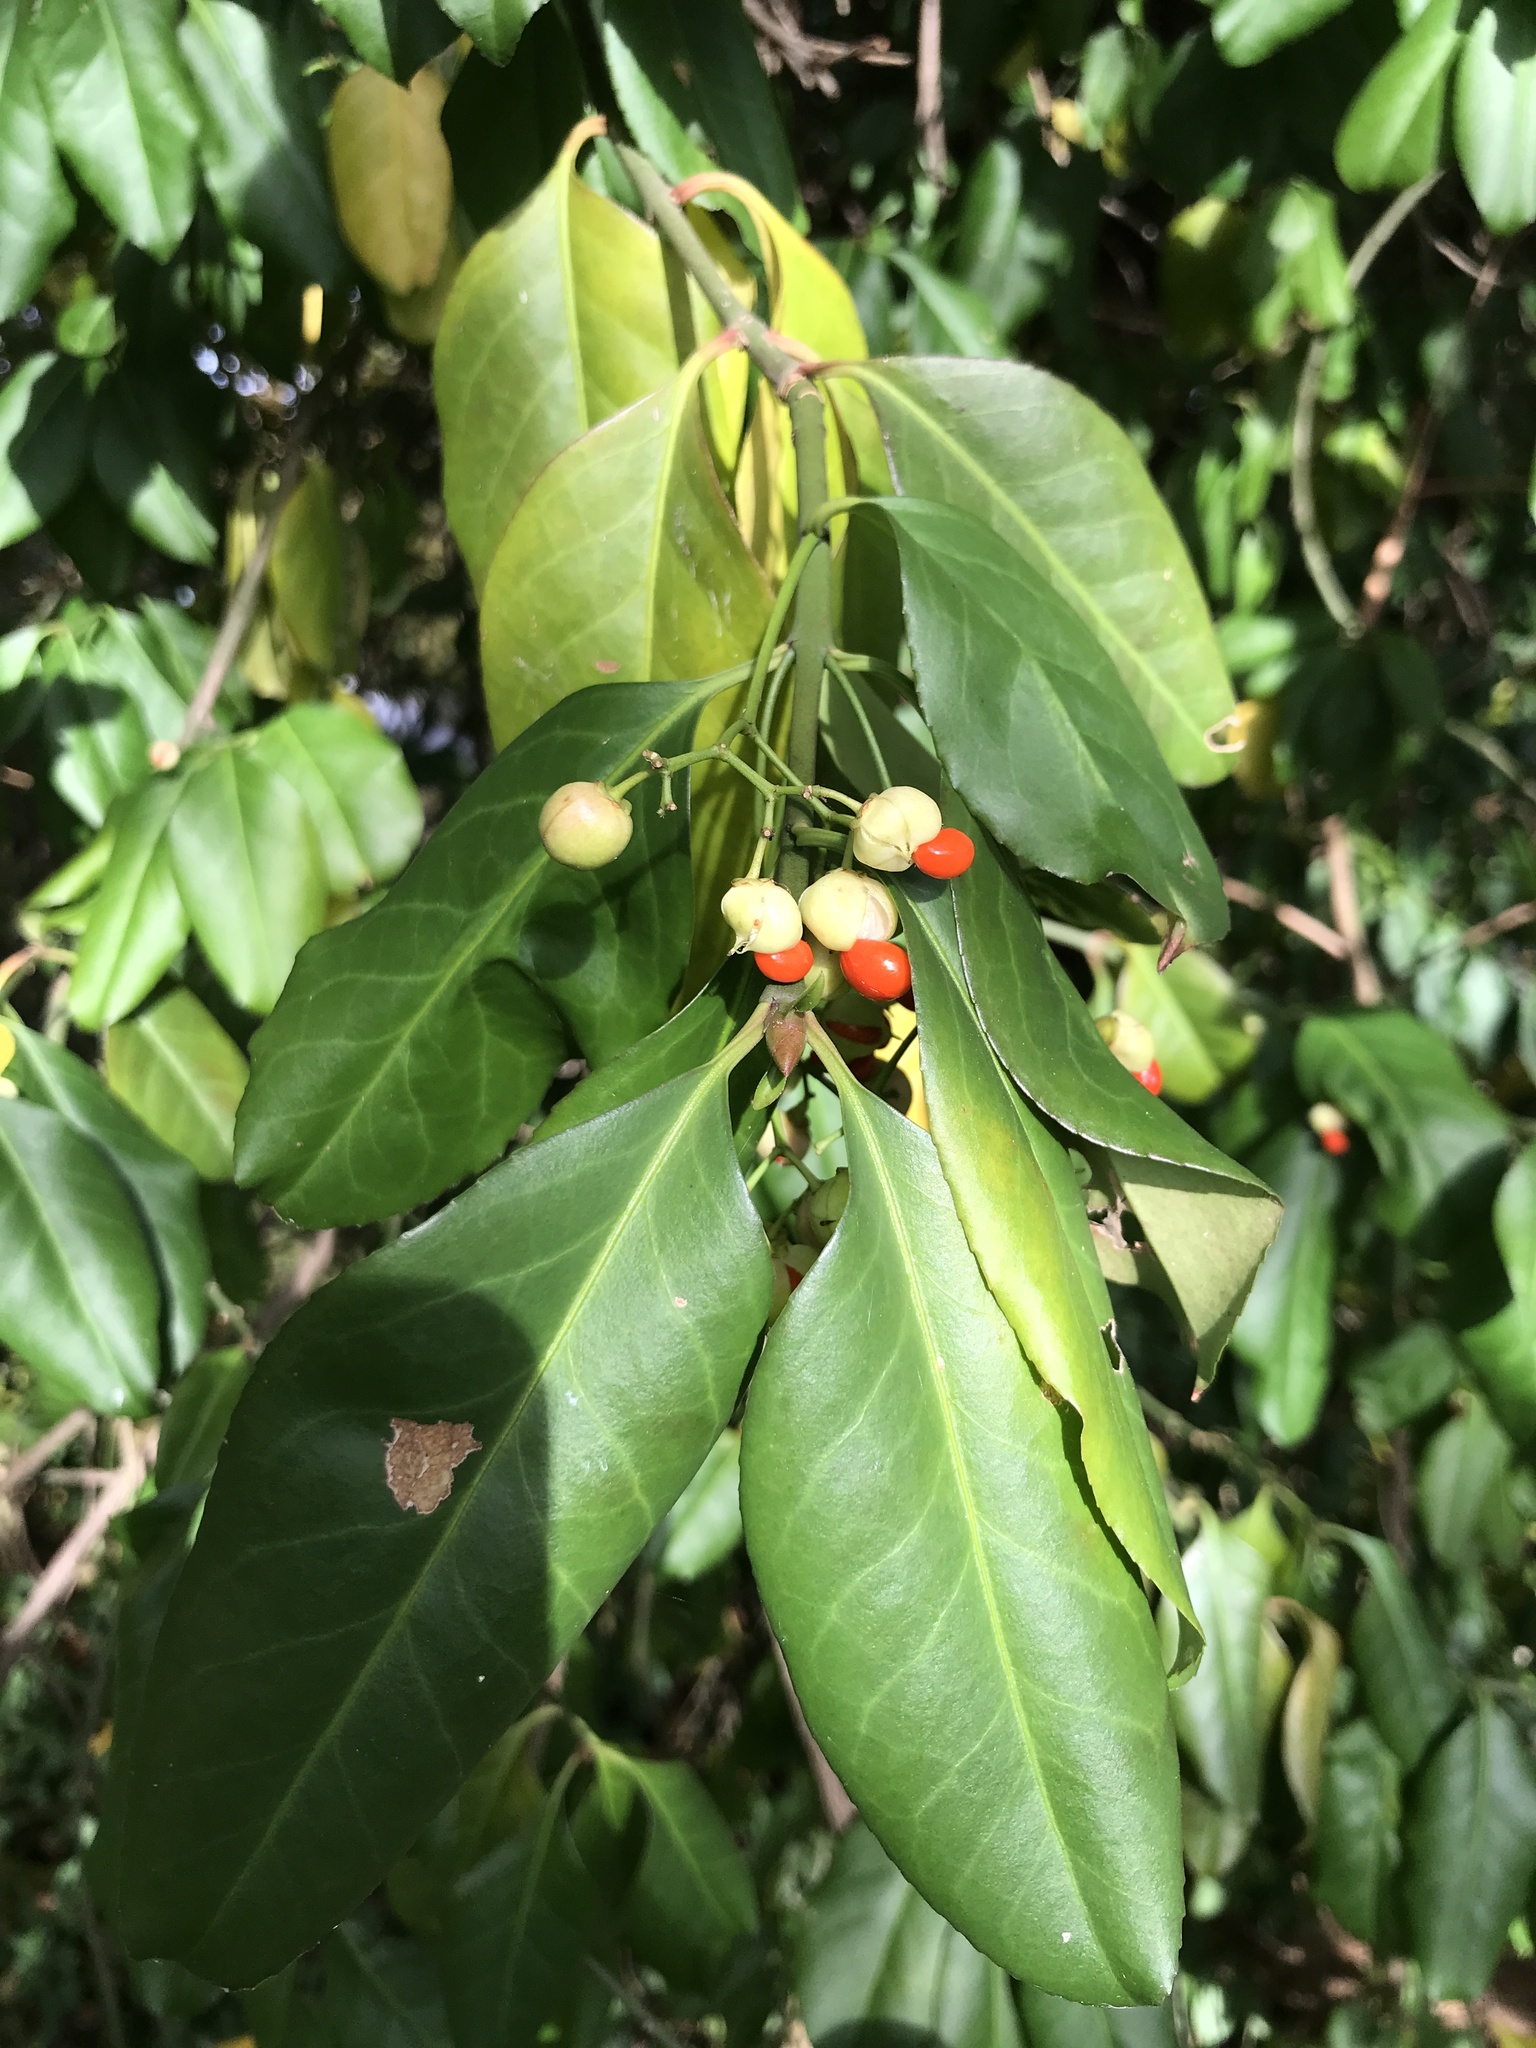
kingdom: Plantae
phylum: Tracheophyta
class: Magnoliopsida
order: Celastrales
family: Celastraceae
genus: Euonymus
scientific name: Euonymus fortunei
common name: Climbing euonymus
